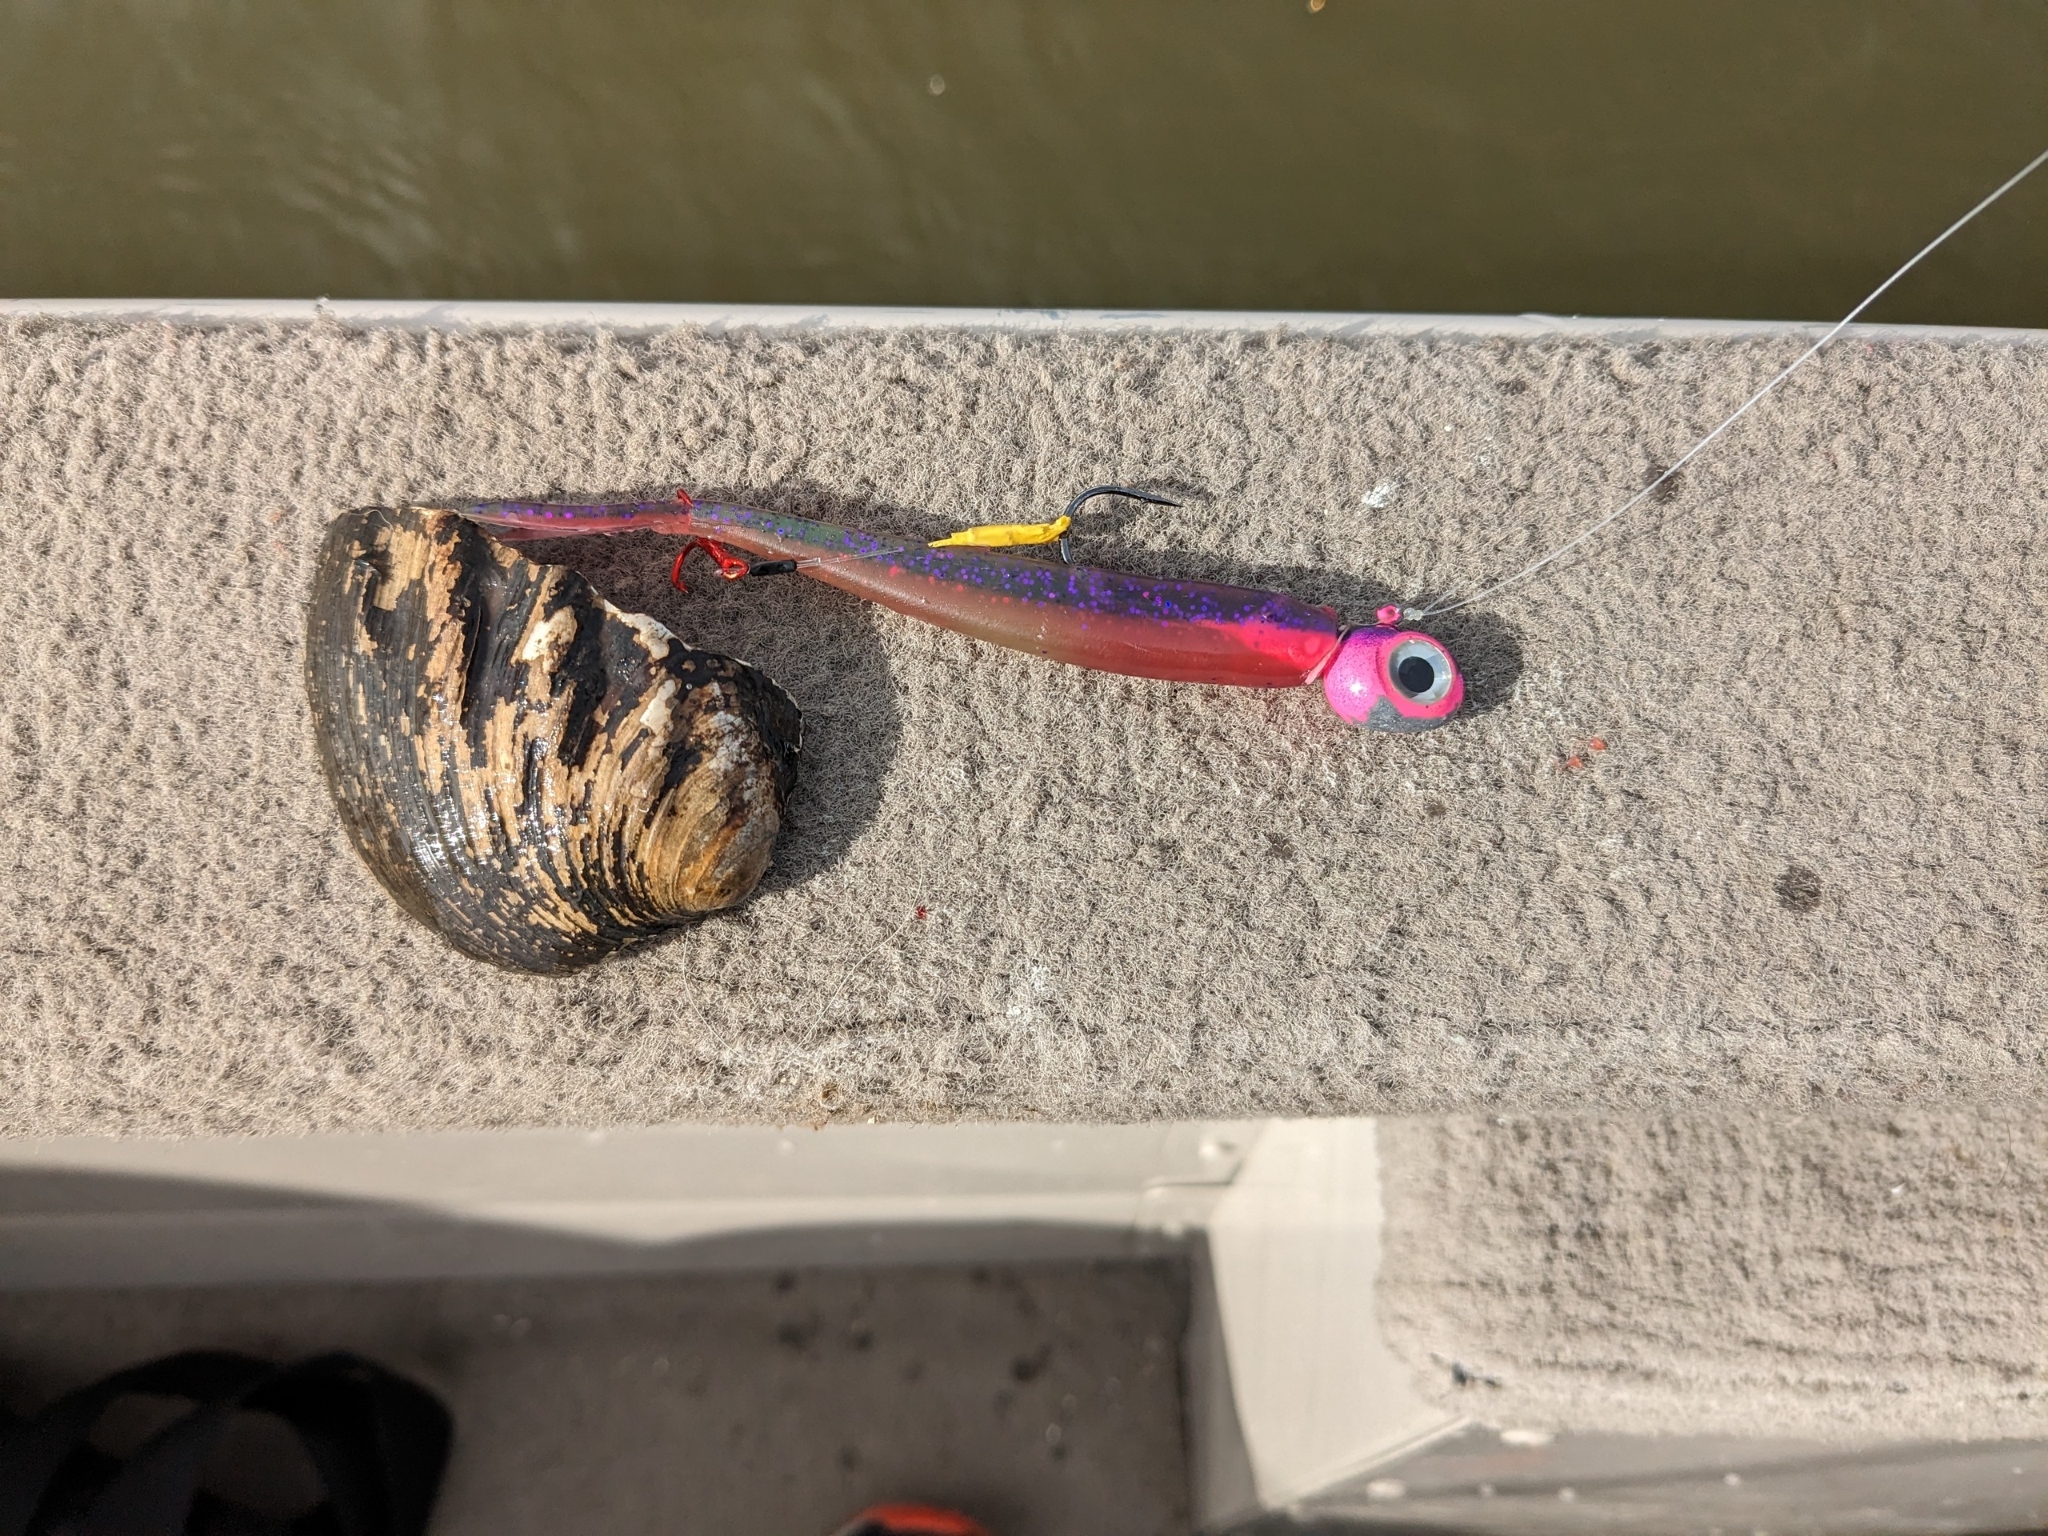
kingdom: Animalia
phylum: Mollusca
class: Bivalvia
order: Unionida
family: Unionidae
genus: Amblema
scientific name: Amblema plicata
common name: Threeridge
